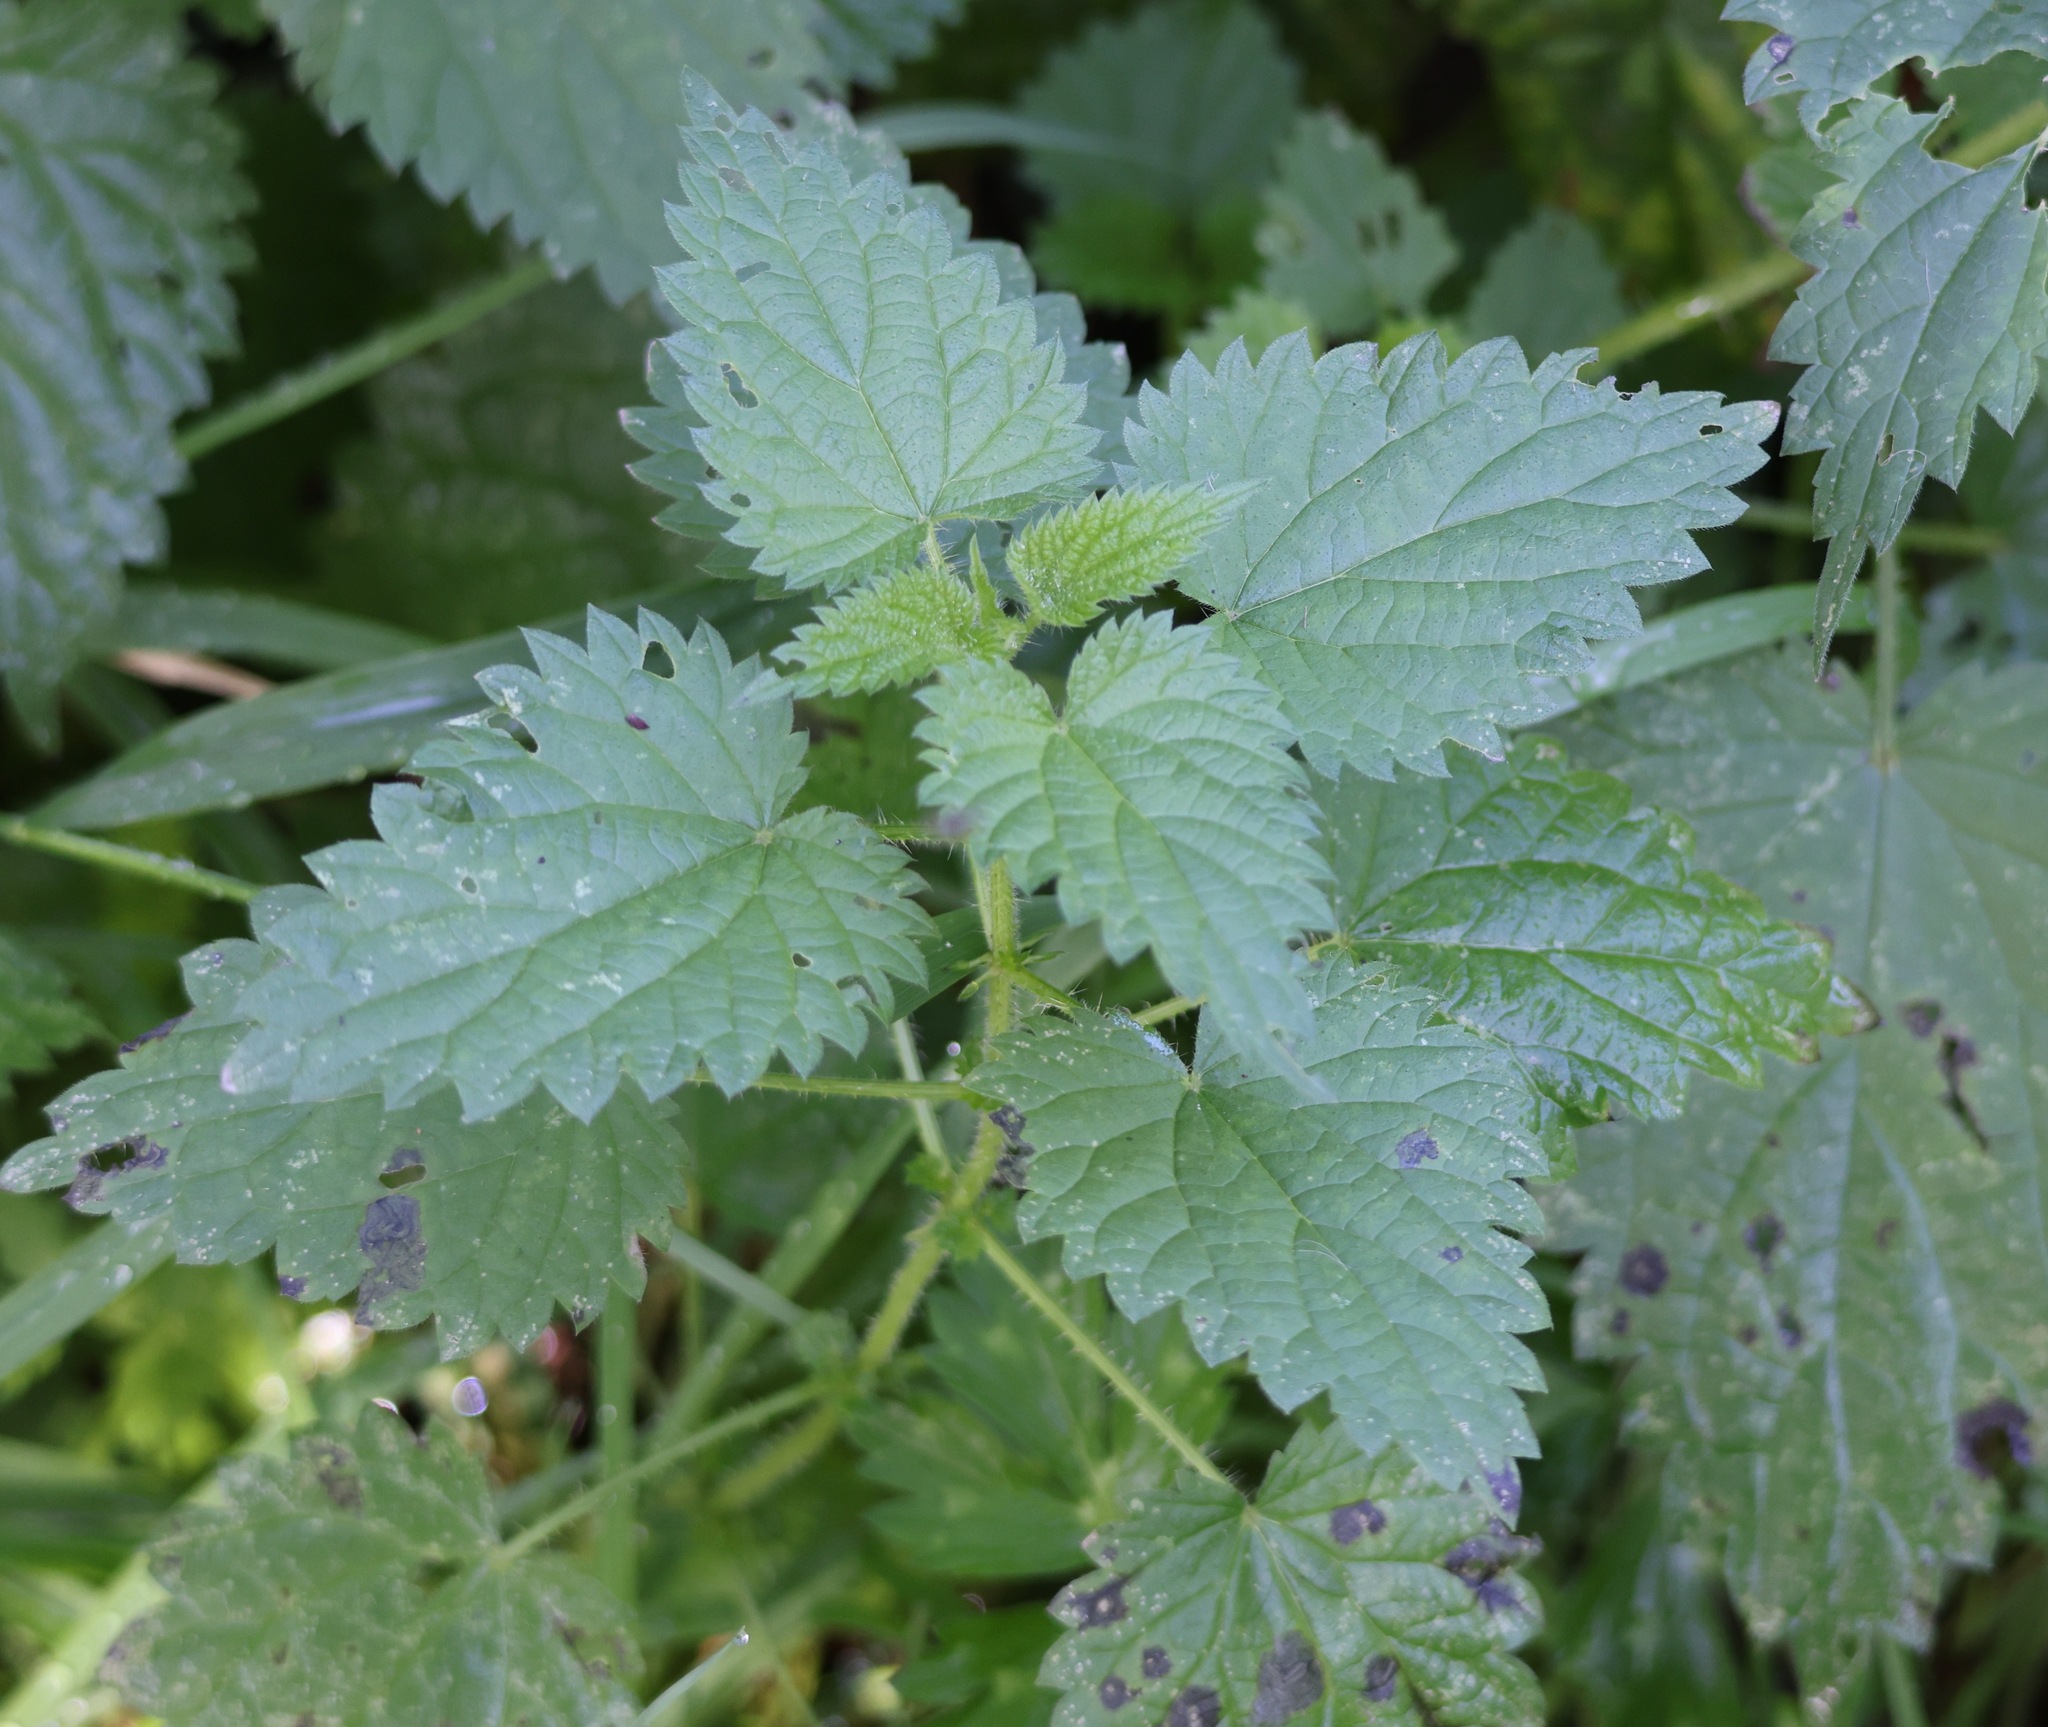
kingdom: Plantae
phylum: Tracheophyta
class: Magnoliopsida
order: Rosales
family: Urticaceae
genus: Urtica
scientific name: Urtica dioica
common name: Common nettle
